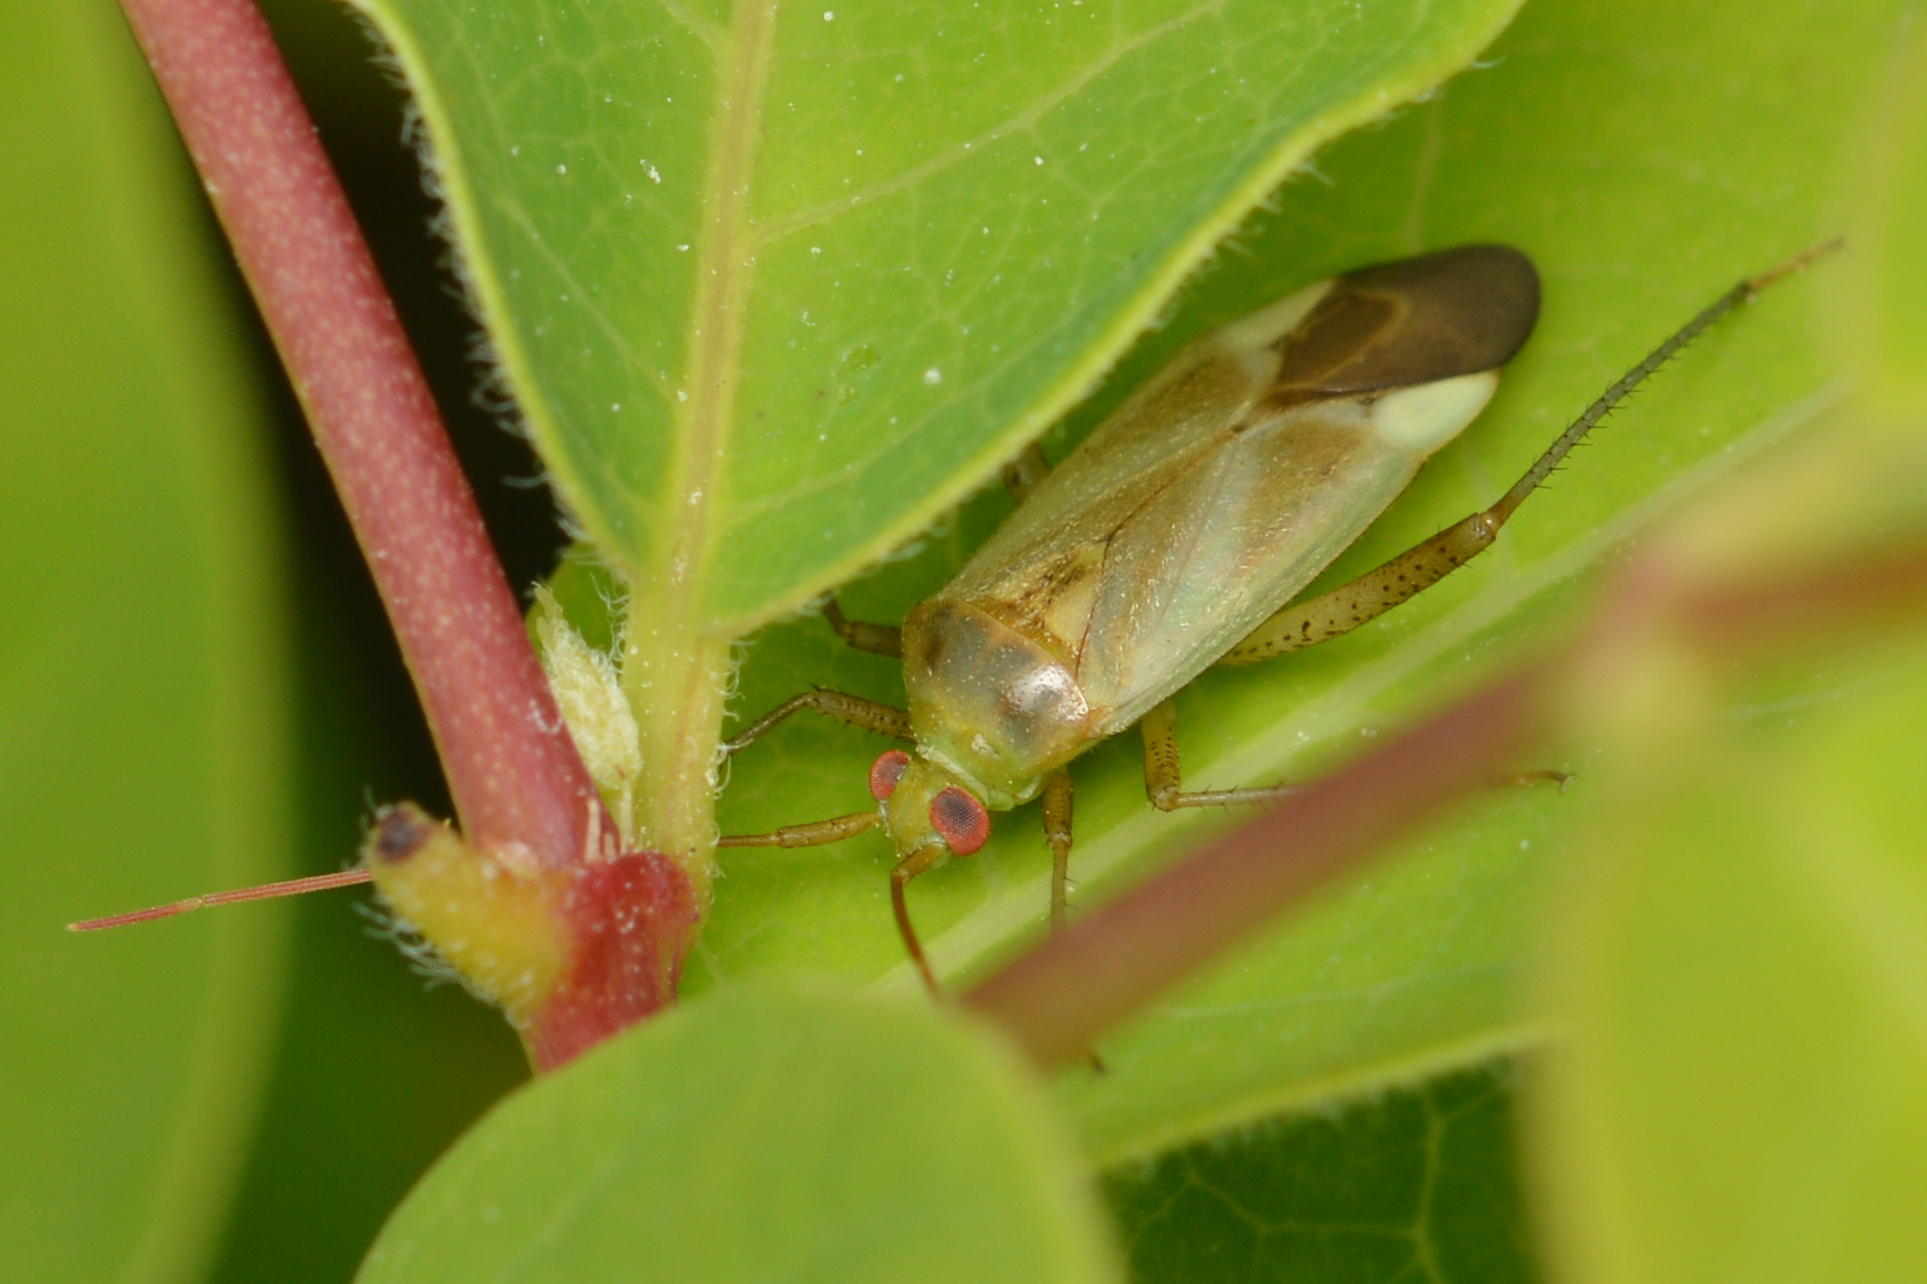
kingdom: Animalia
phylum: Arthropoda
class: Insecta
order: Hemiptera
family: Miridae
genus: Adelphocoris
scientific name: Adelphocoris lineolatus
